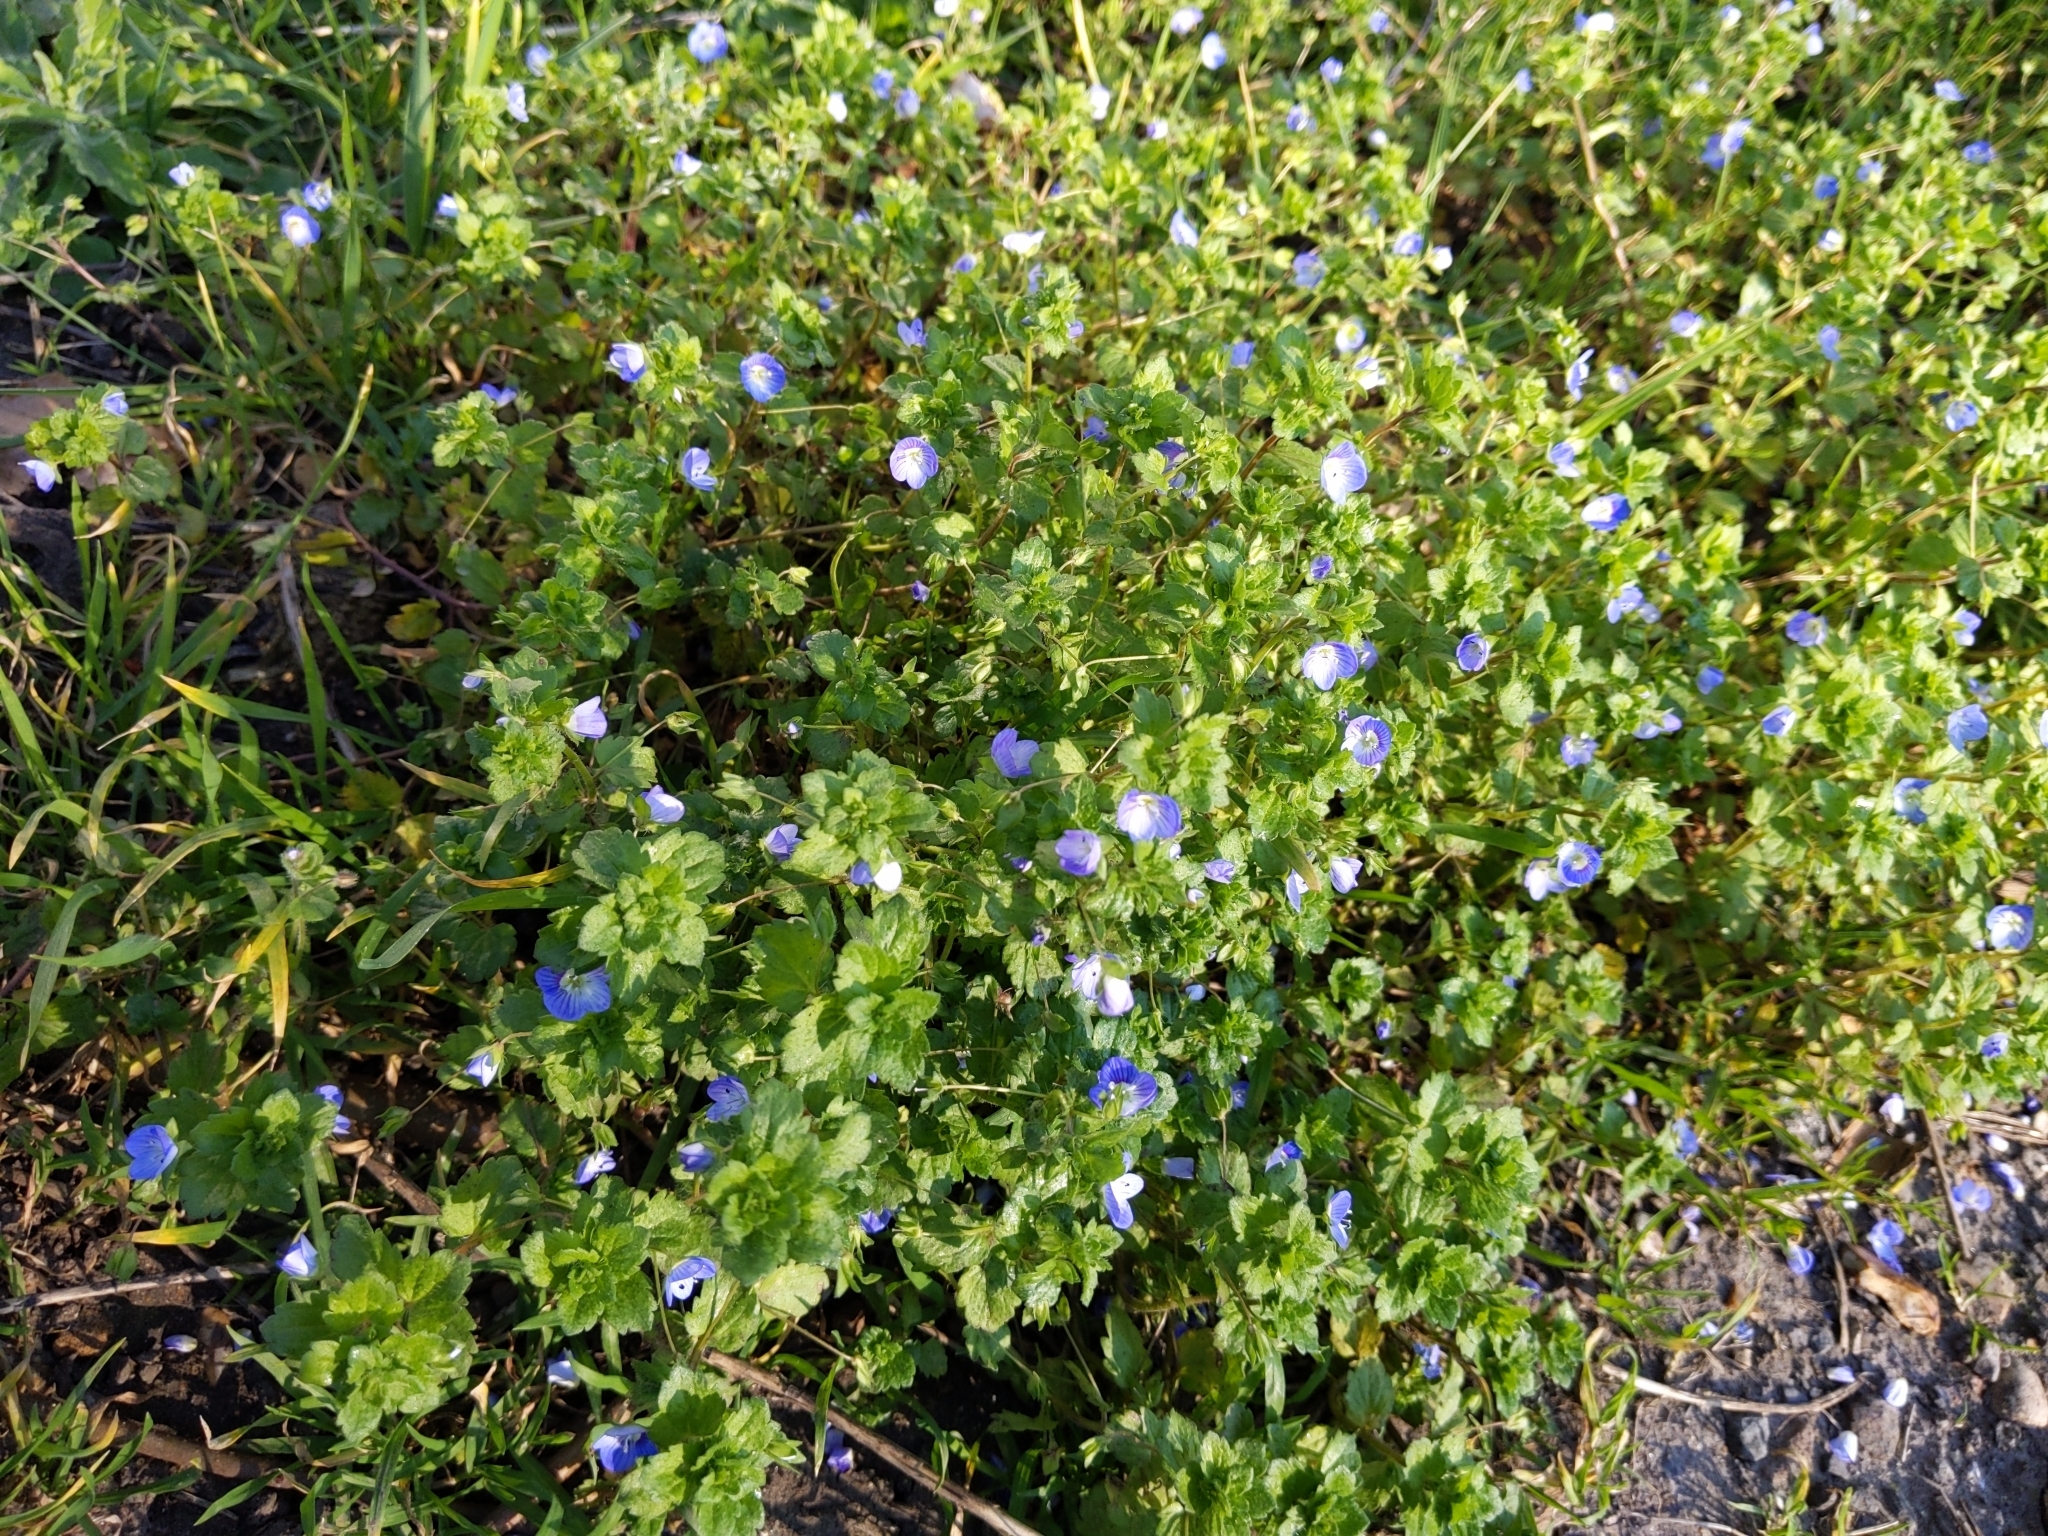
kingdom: Plantae
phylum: Tracheophyta
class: Magnoliopsida
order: Lamiales
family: Plantaginaceae
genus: Veronica
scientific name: Veronica persica
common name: Common field-speedwell
